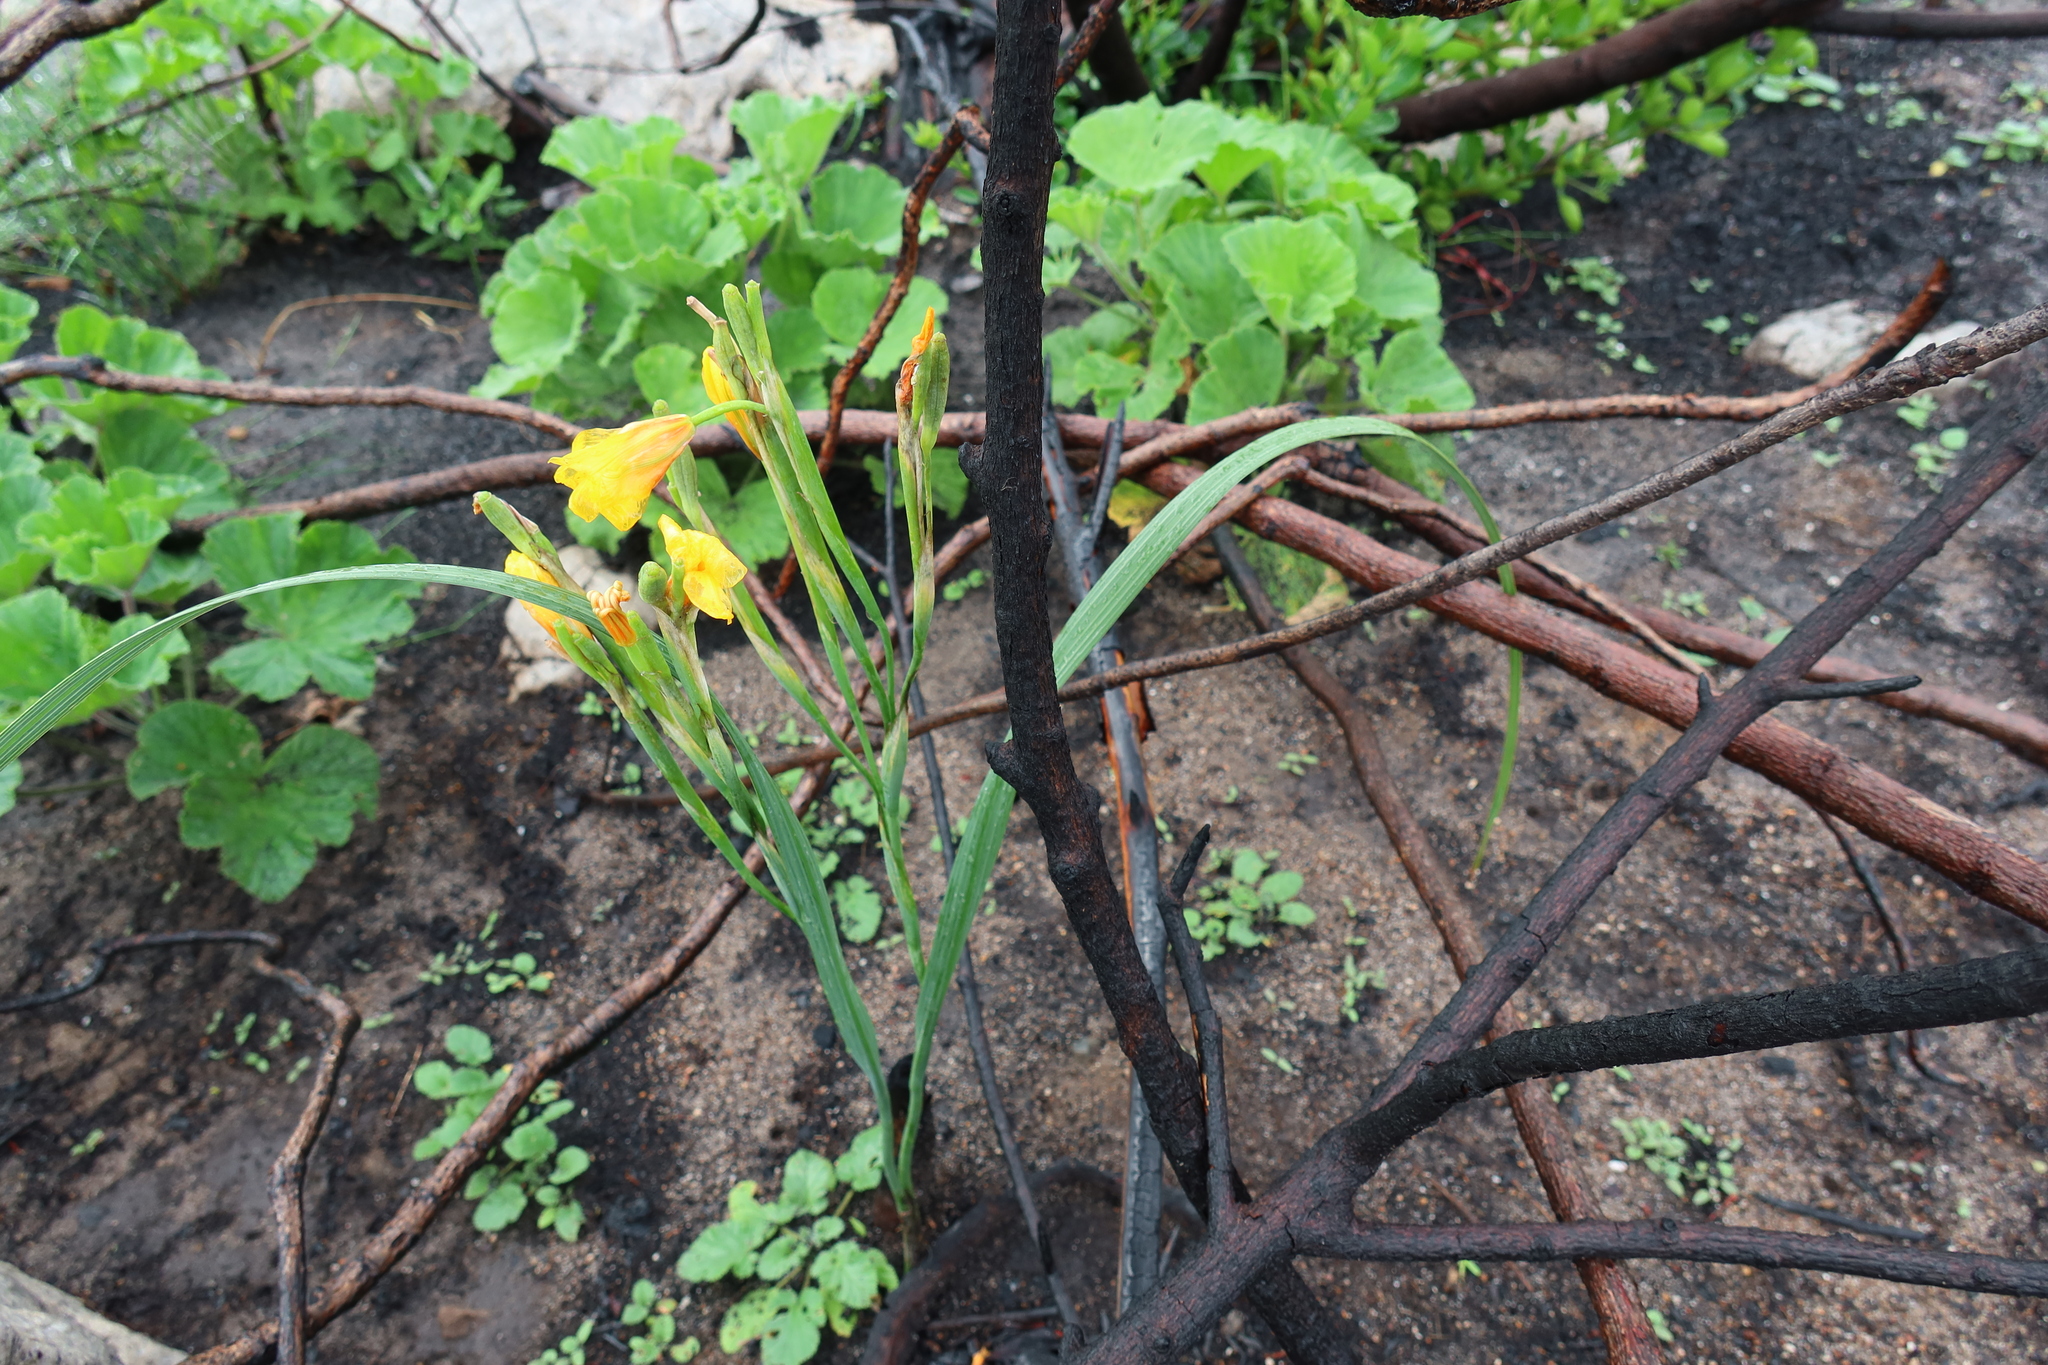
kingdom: Plantae
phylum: Tracheophyta
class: Liliopsida
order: Asparagales
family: Iridaceae
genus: Moraea
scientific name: Moraea ochroleuca
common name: Red tulp
